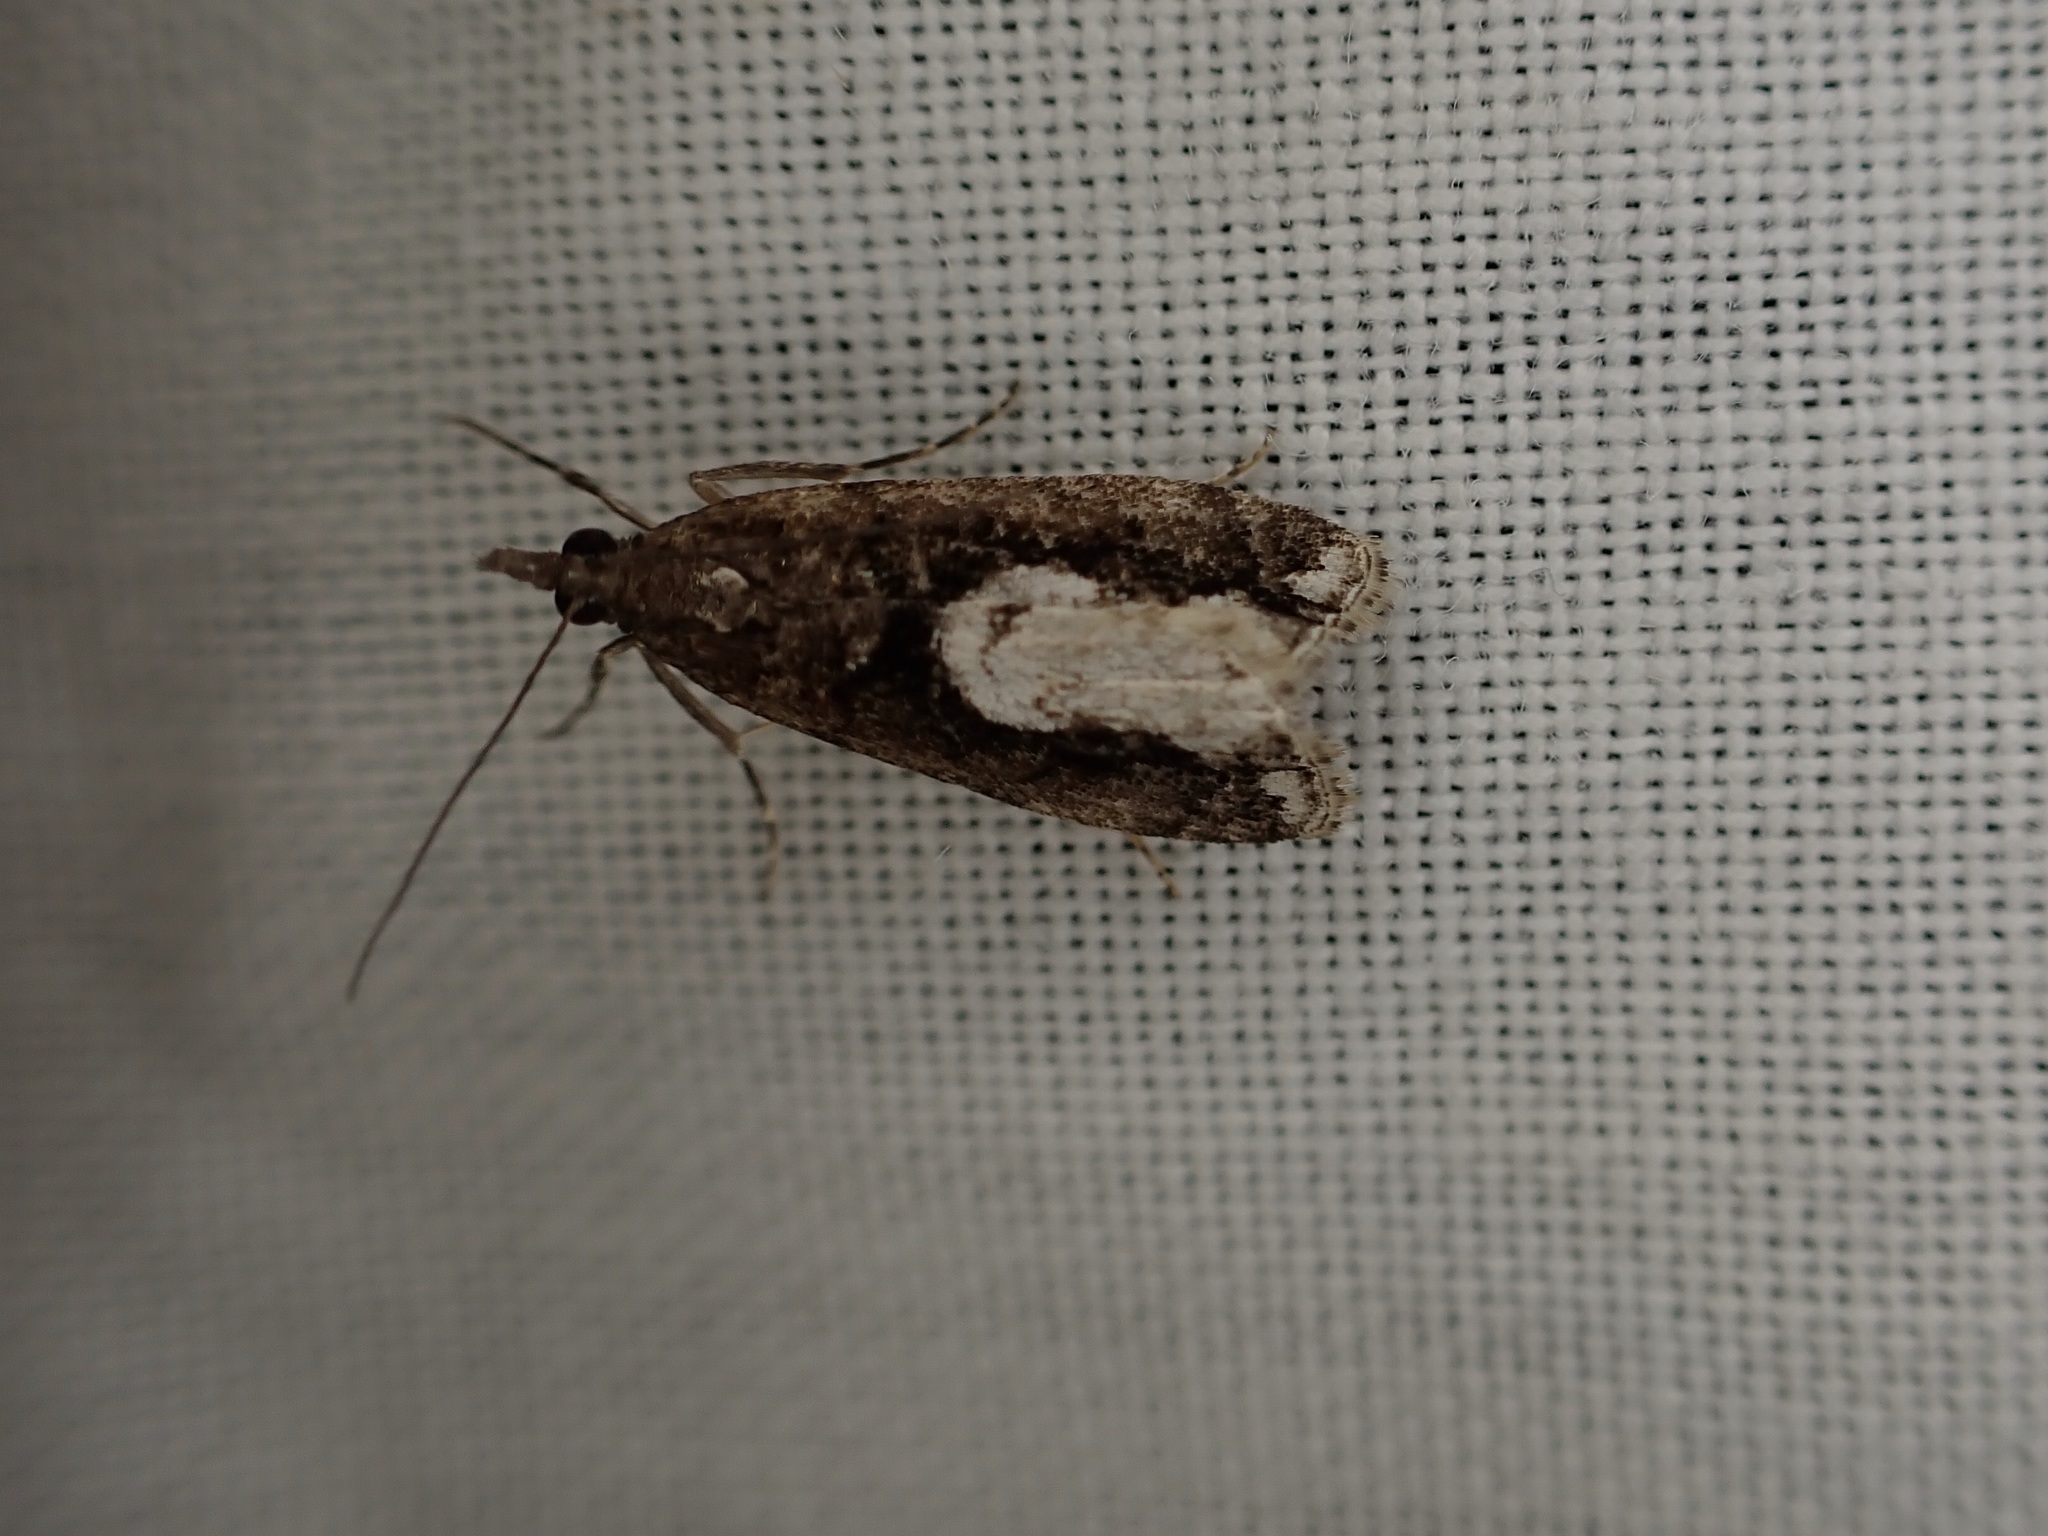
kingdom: Animalia
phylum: Arthropoda
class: Insecta
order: Lepidoptera
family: Crambidae
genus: Eudonia
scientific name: Eudonia hemiplaca
